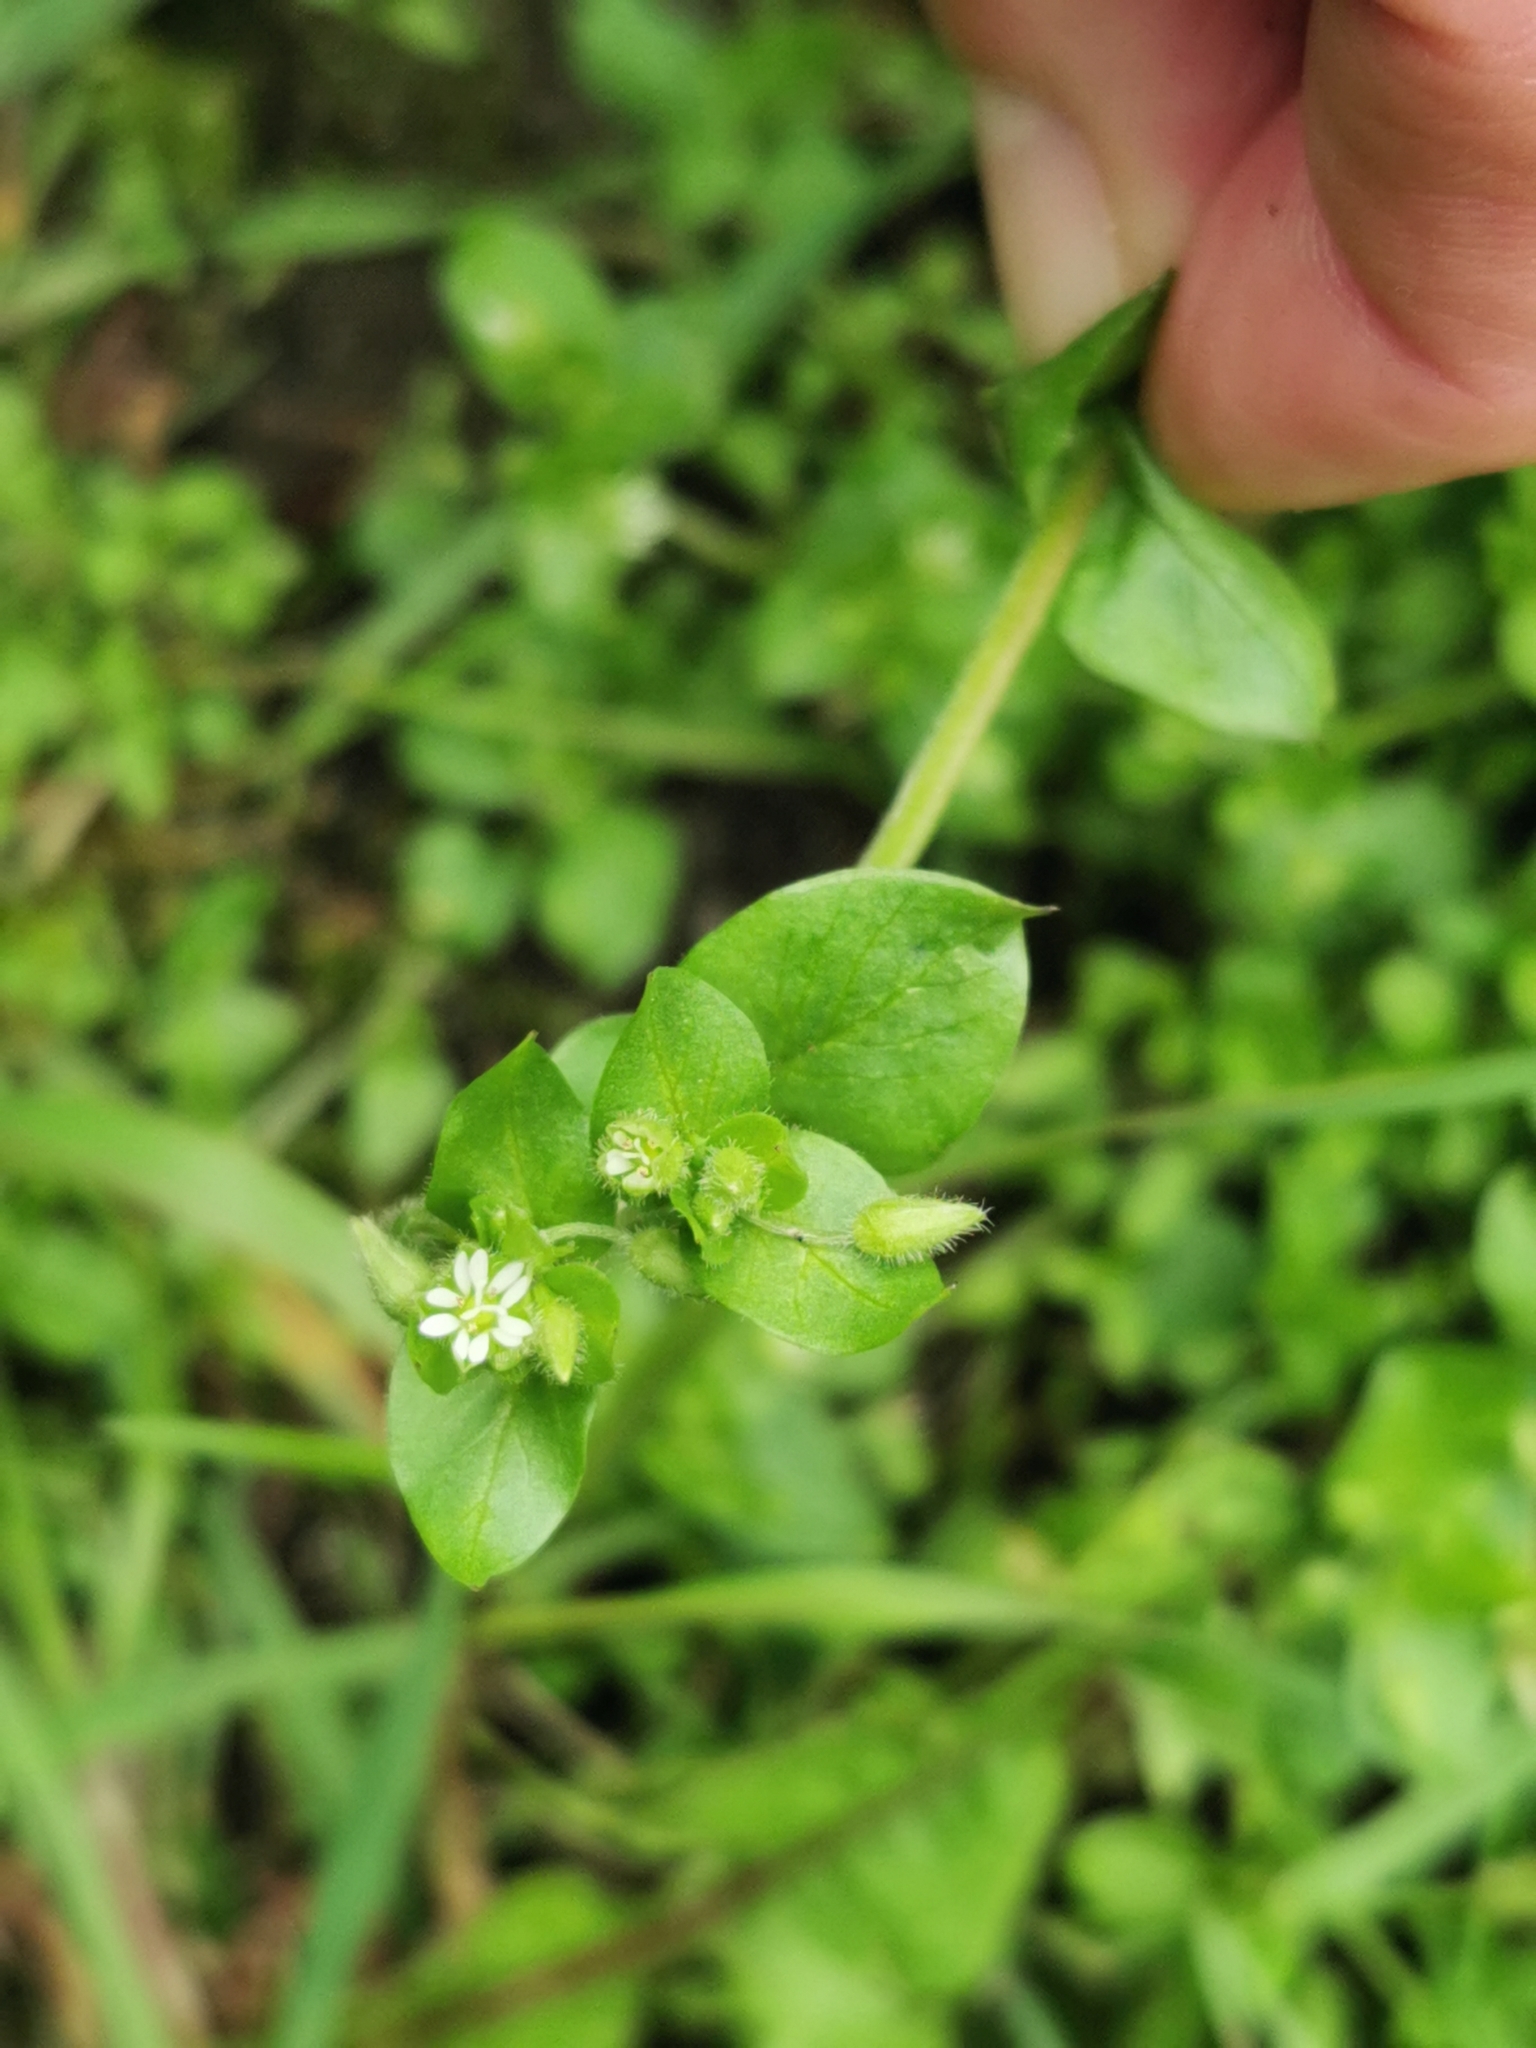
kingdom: Plantae
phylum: Tracheophyta
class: Magnoliopsida
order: Caryophyllales
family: Caryophyllaceae
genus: Stellaria
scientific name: Stellaria media
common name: Common chickweed
